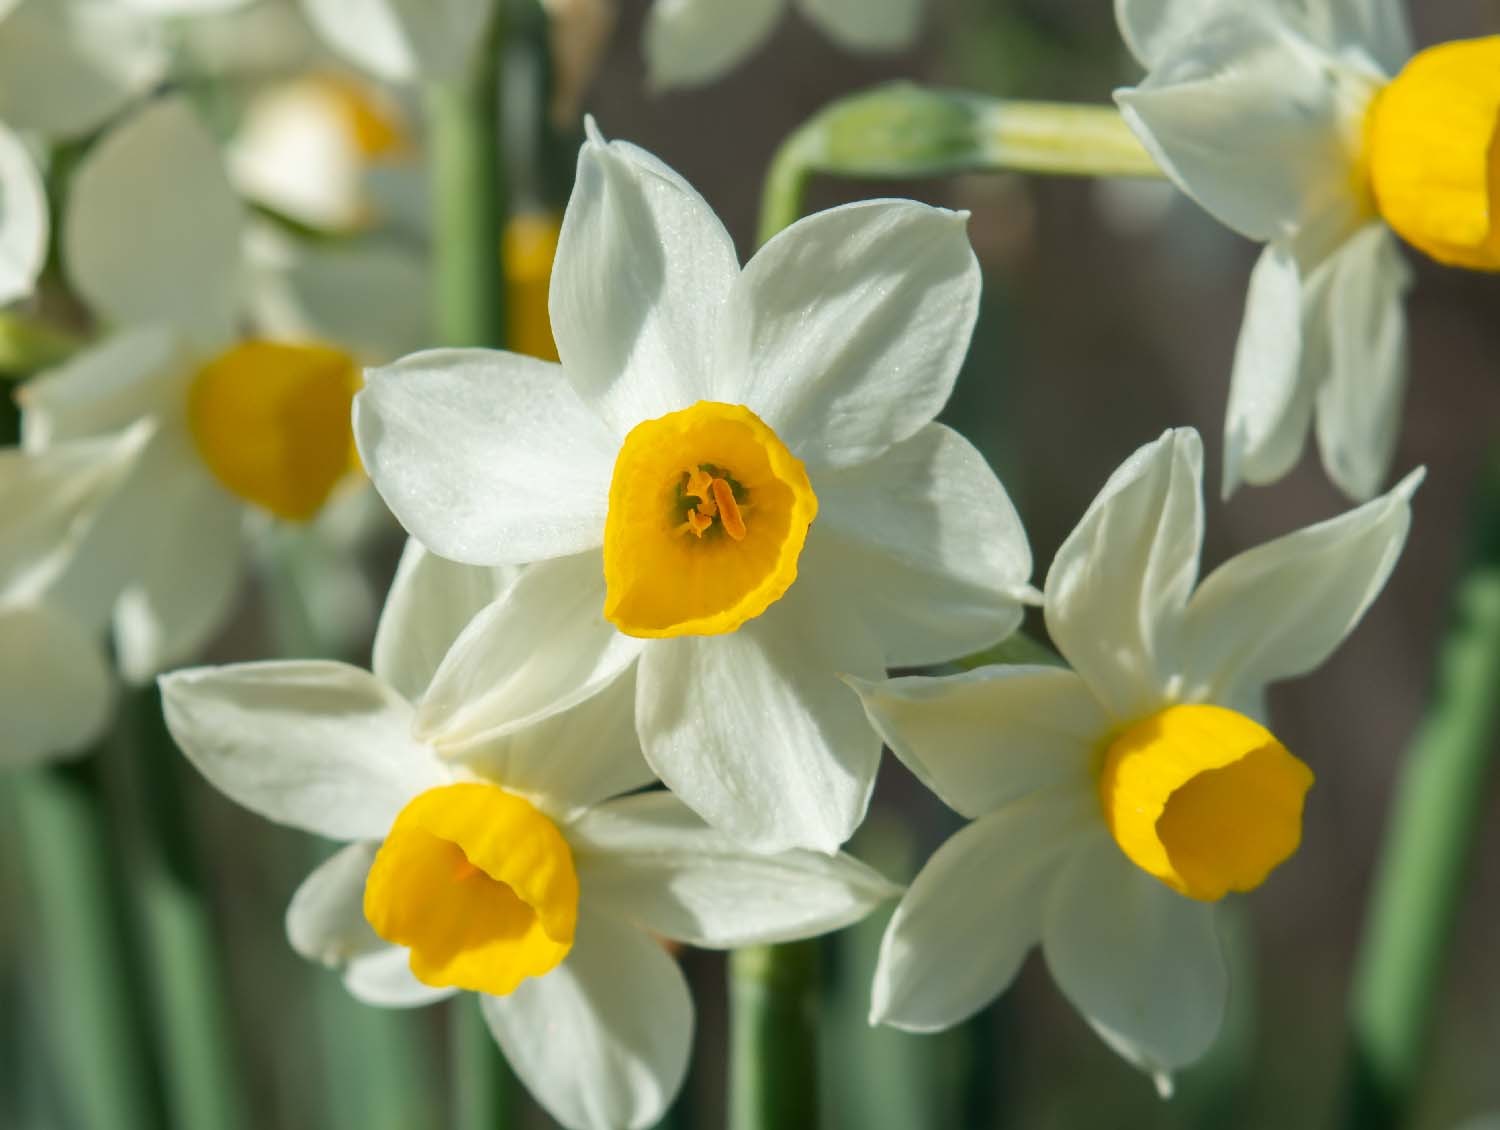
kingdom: Plantae
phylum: Tracheophyta
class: Liliopsida
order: Asparagales
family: Amaryllidaceae
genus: Narcissus
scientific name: Narcissus tazetta
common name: Bunch-flowered daffodil
